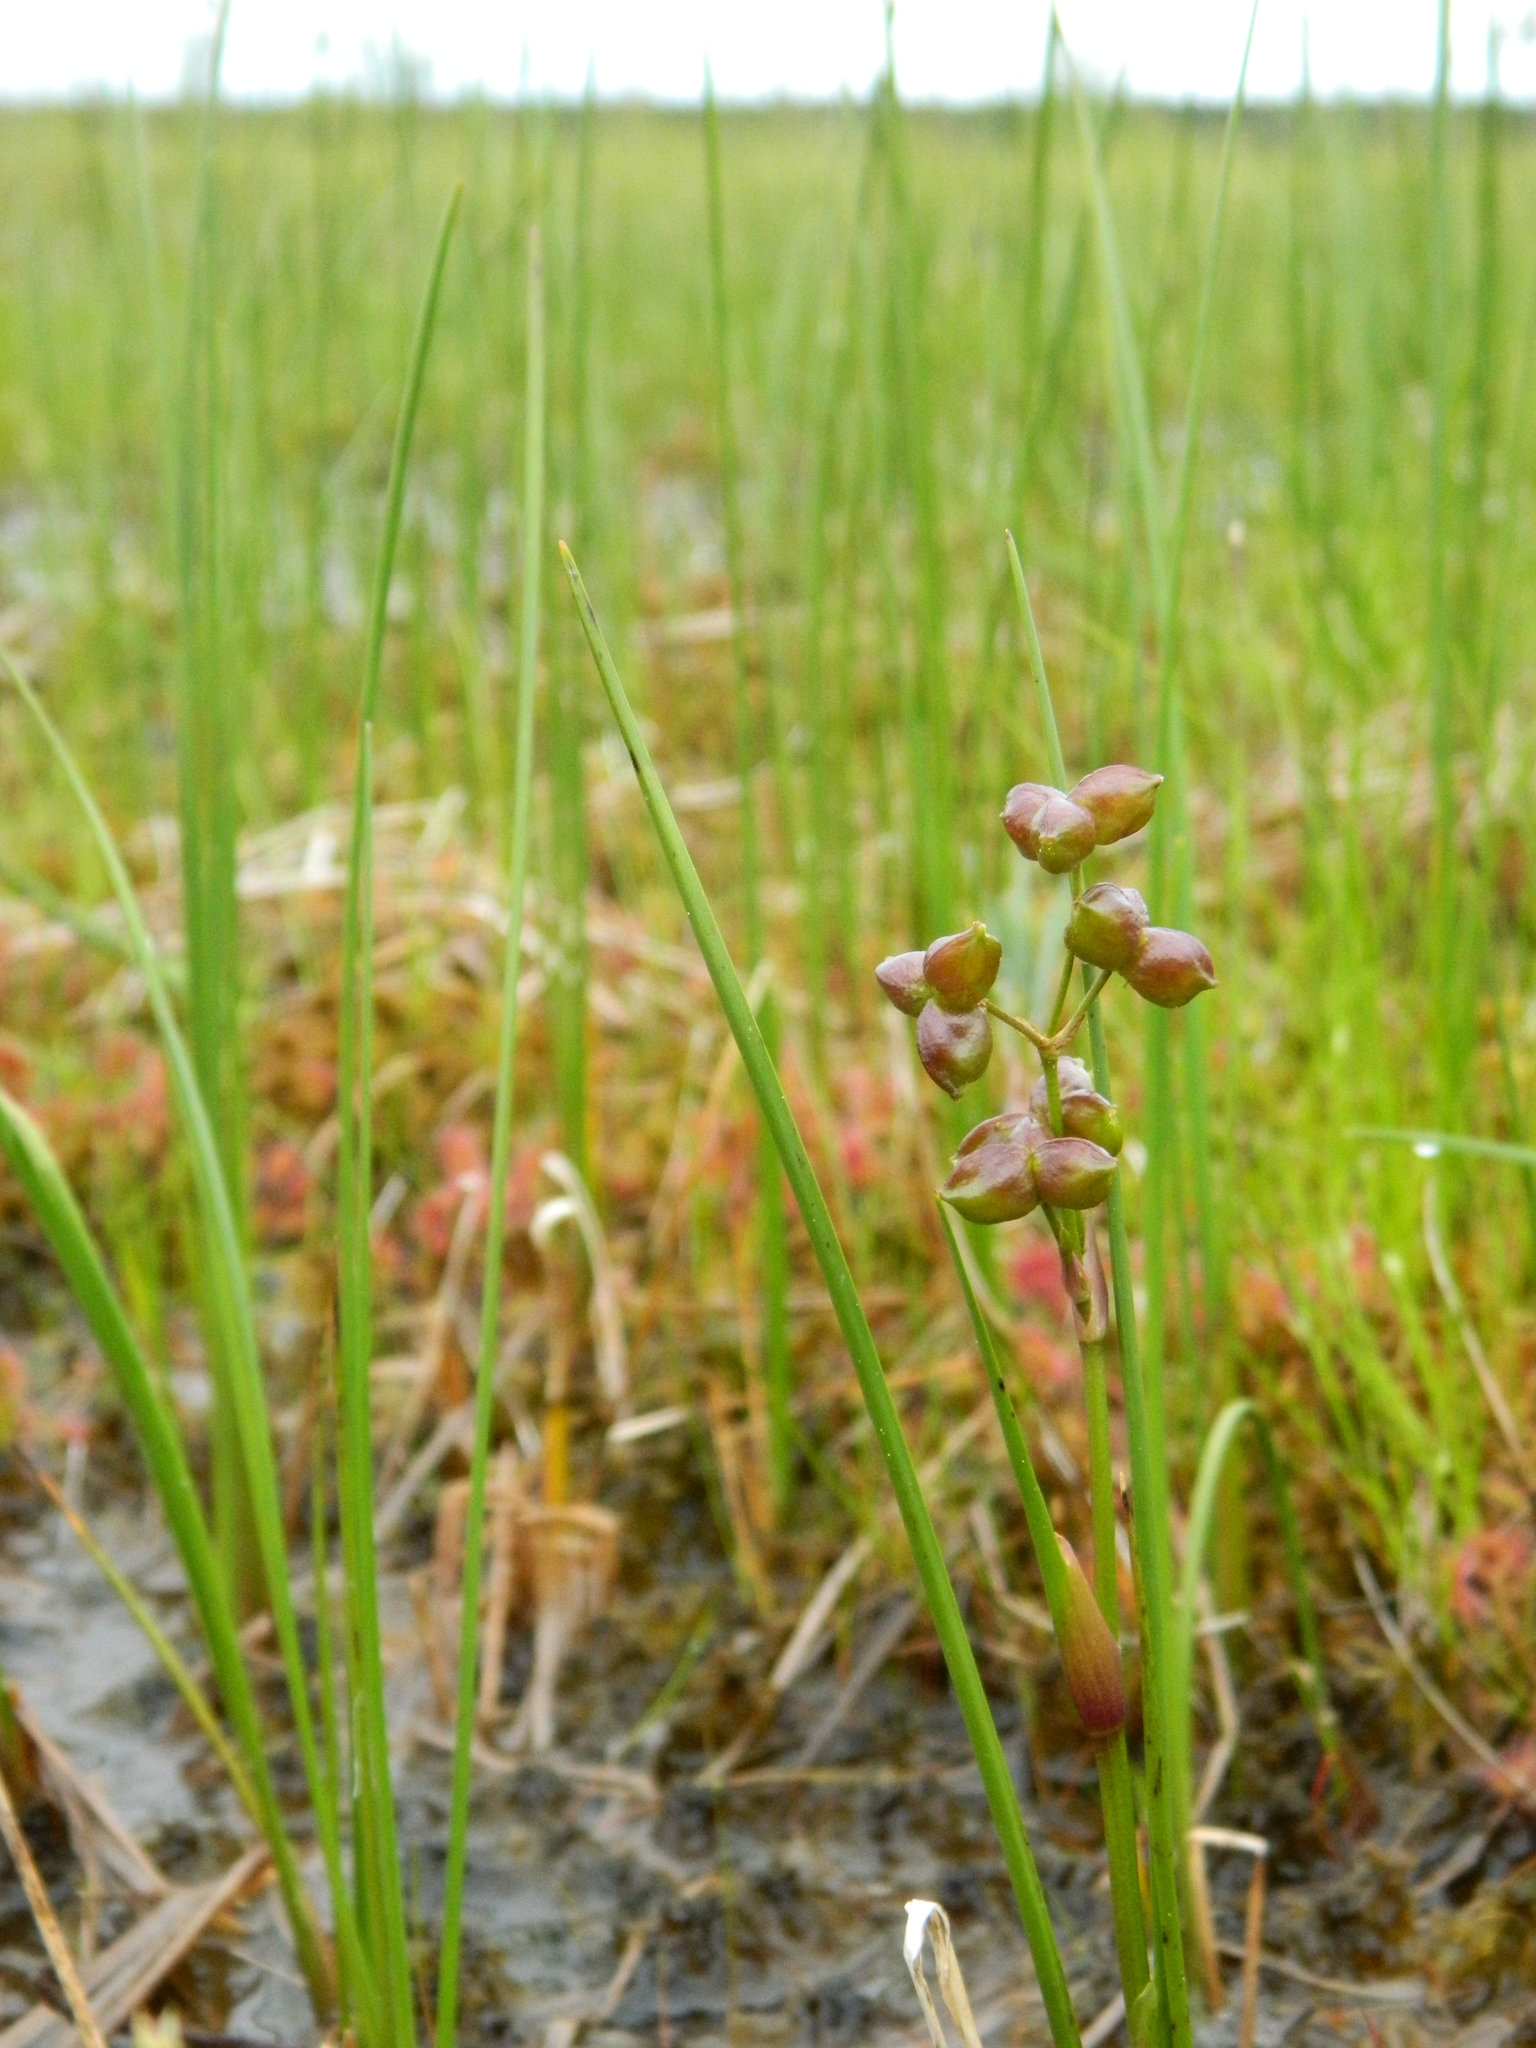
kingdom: Plantae
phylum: Tracheophyta
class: Liliopsida
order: Alismatales
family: Scheuchzeriaceae
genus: Scheuchzeria
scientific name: Scheuchzeria palustris
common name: Rannoch-rush
